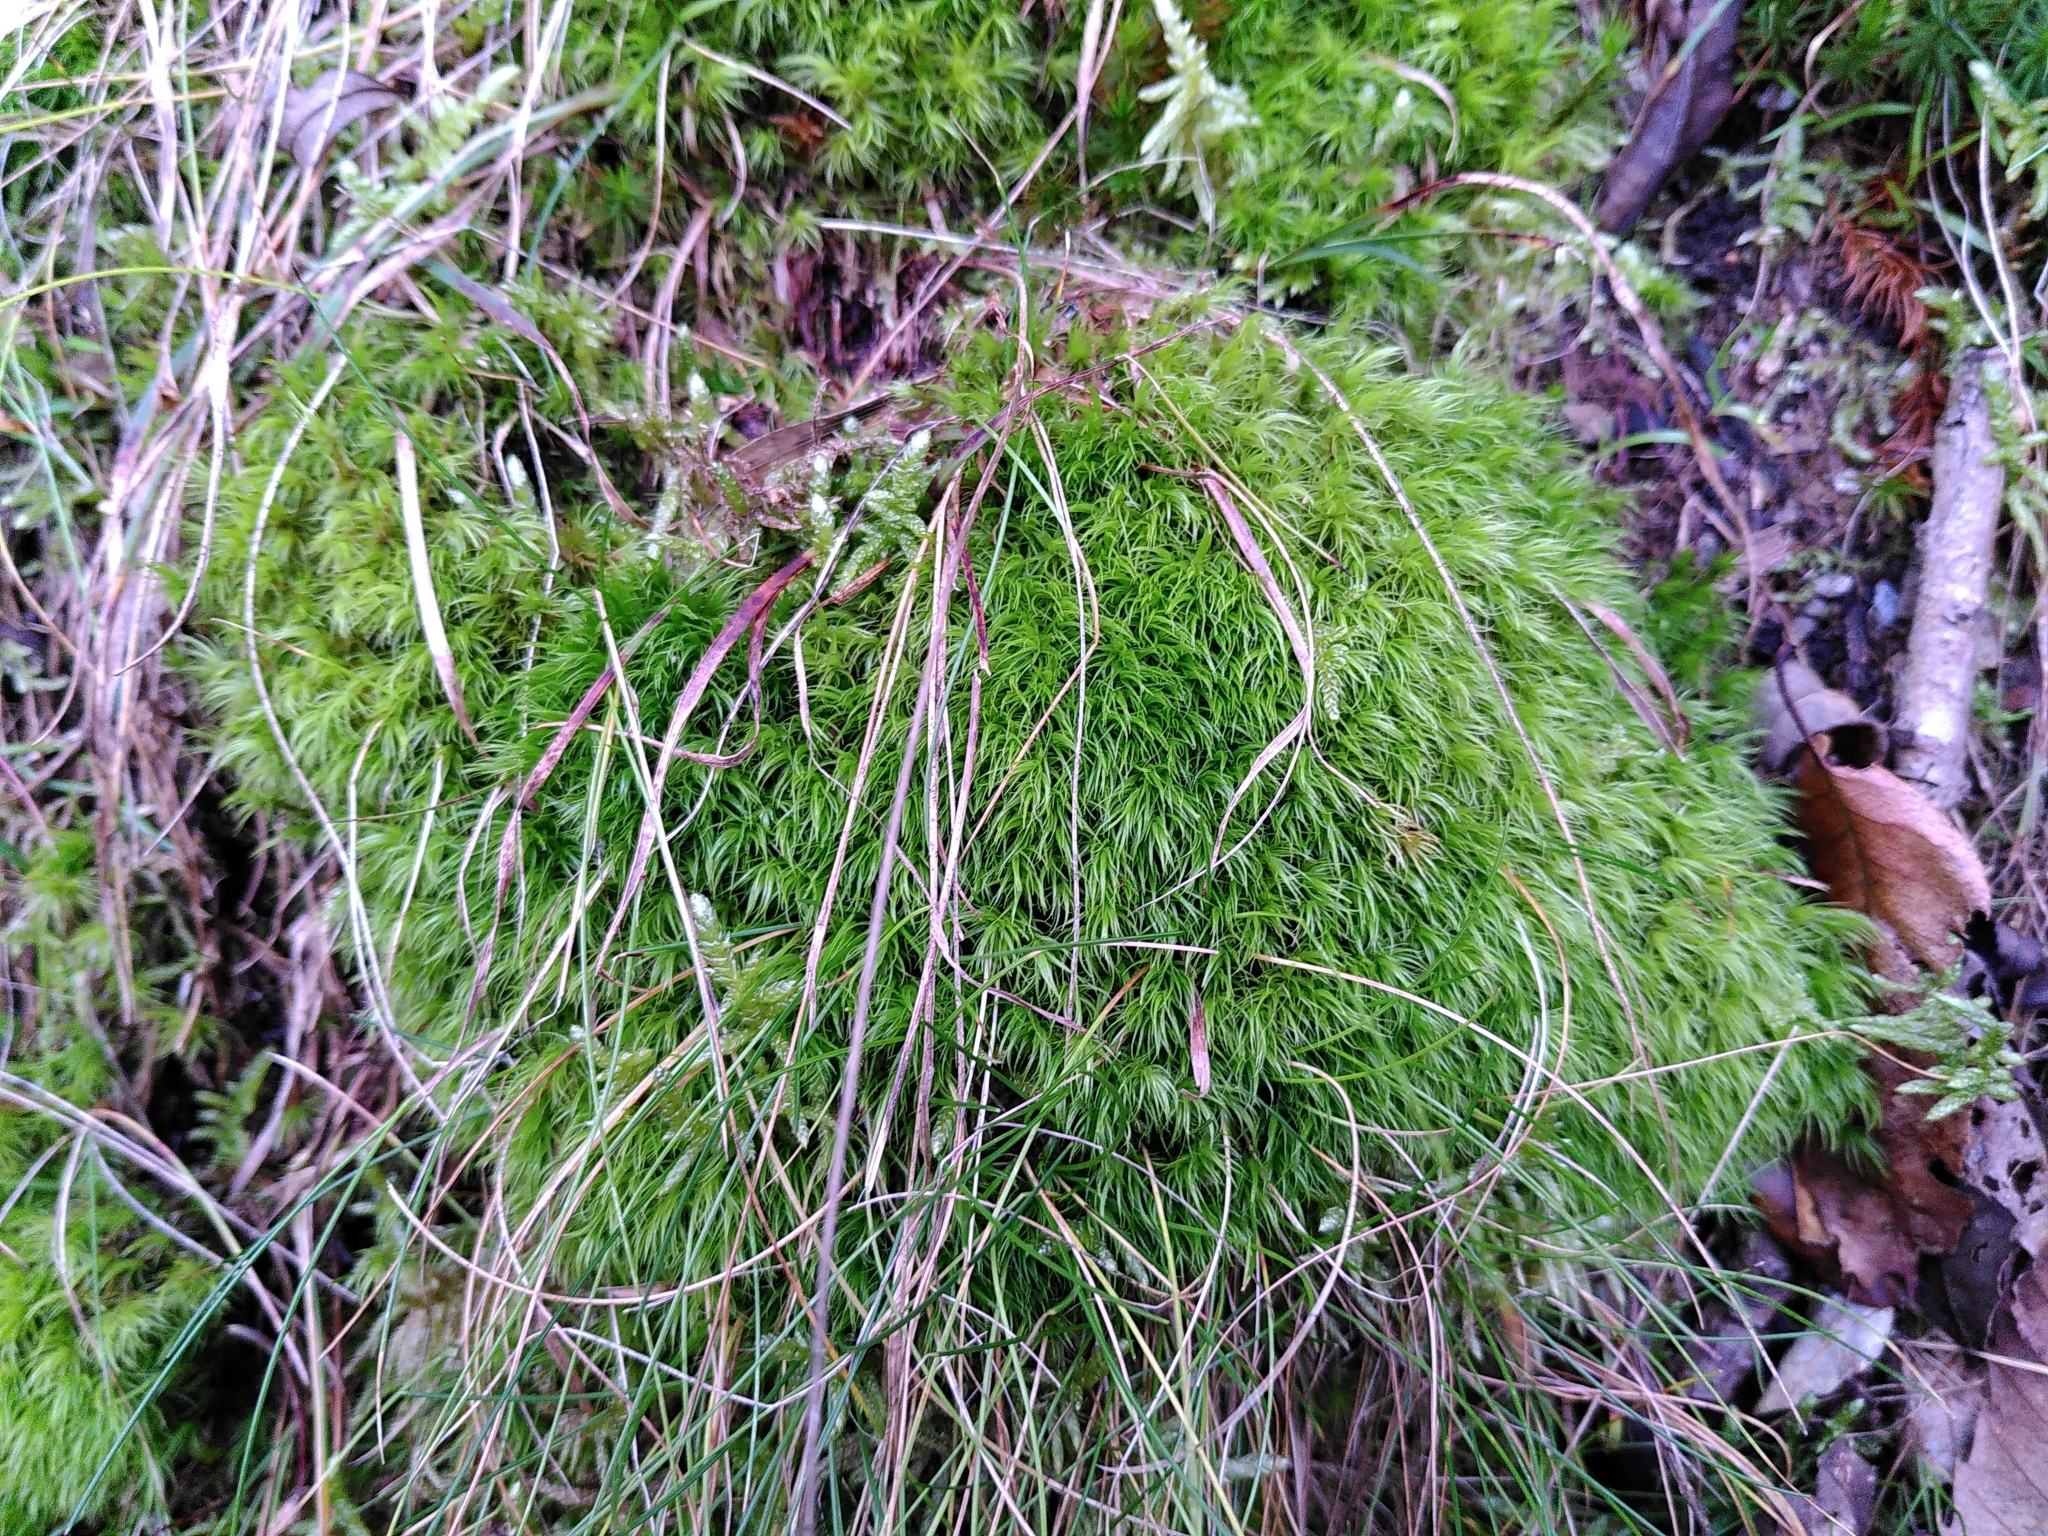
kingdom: Plantae
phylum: Bryophyta
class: Bryopsida
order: Dicranales
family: Dicranaceae
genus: Dicranum
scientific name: Dicranum scoparium
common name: Broom fork-moss
